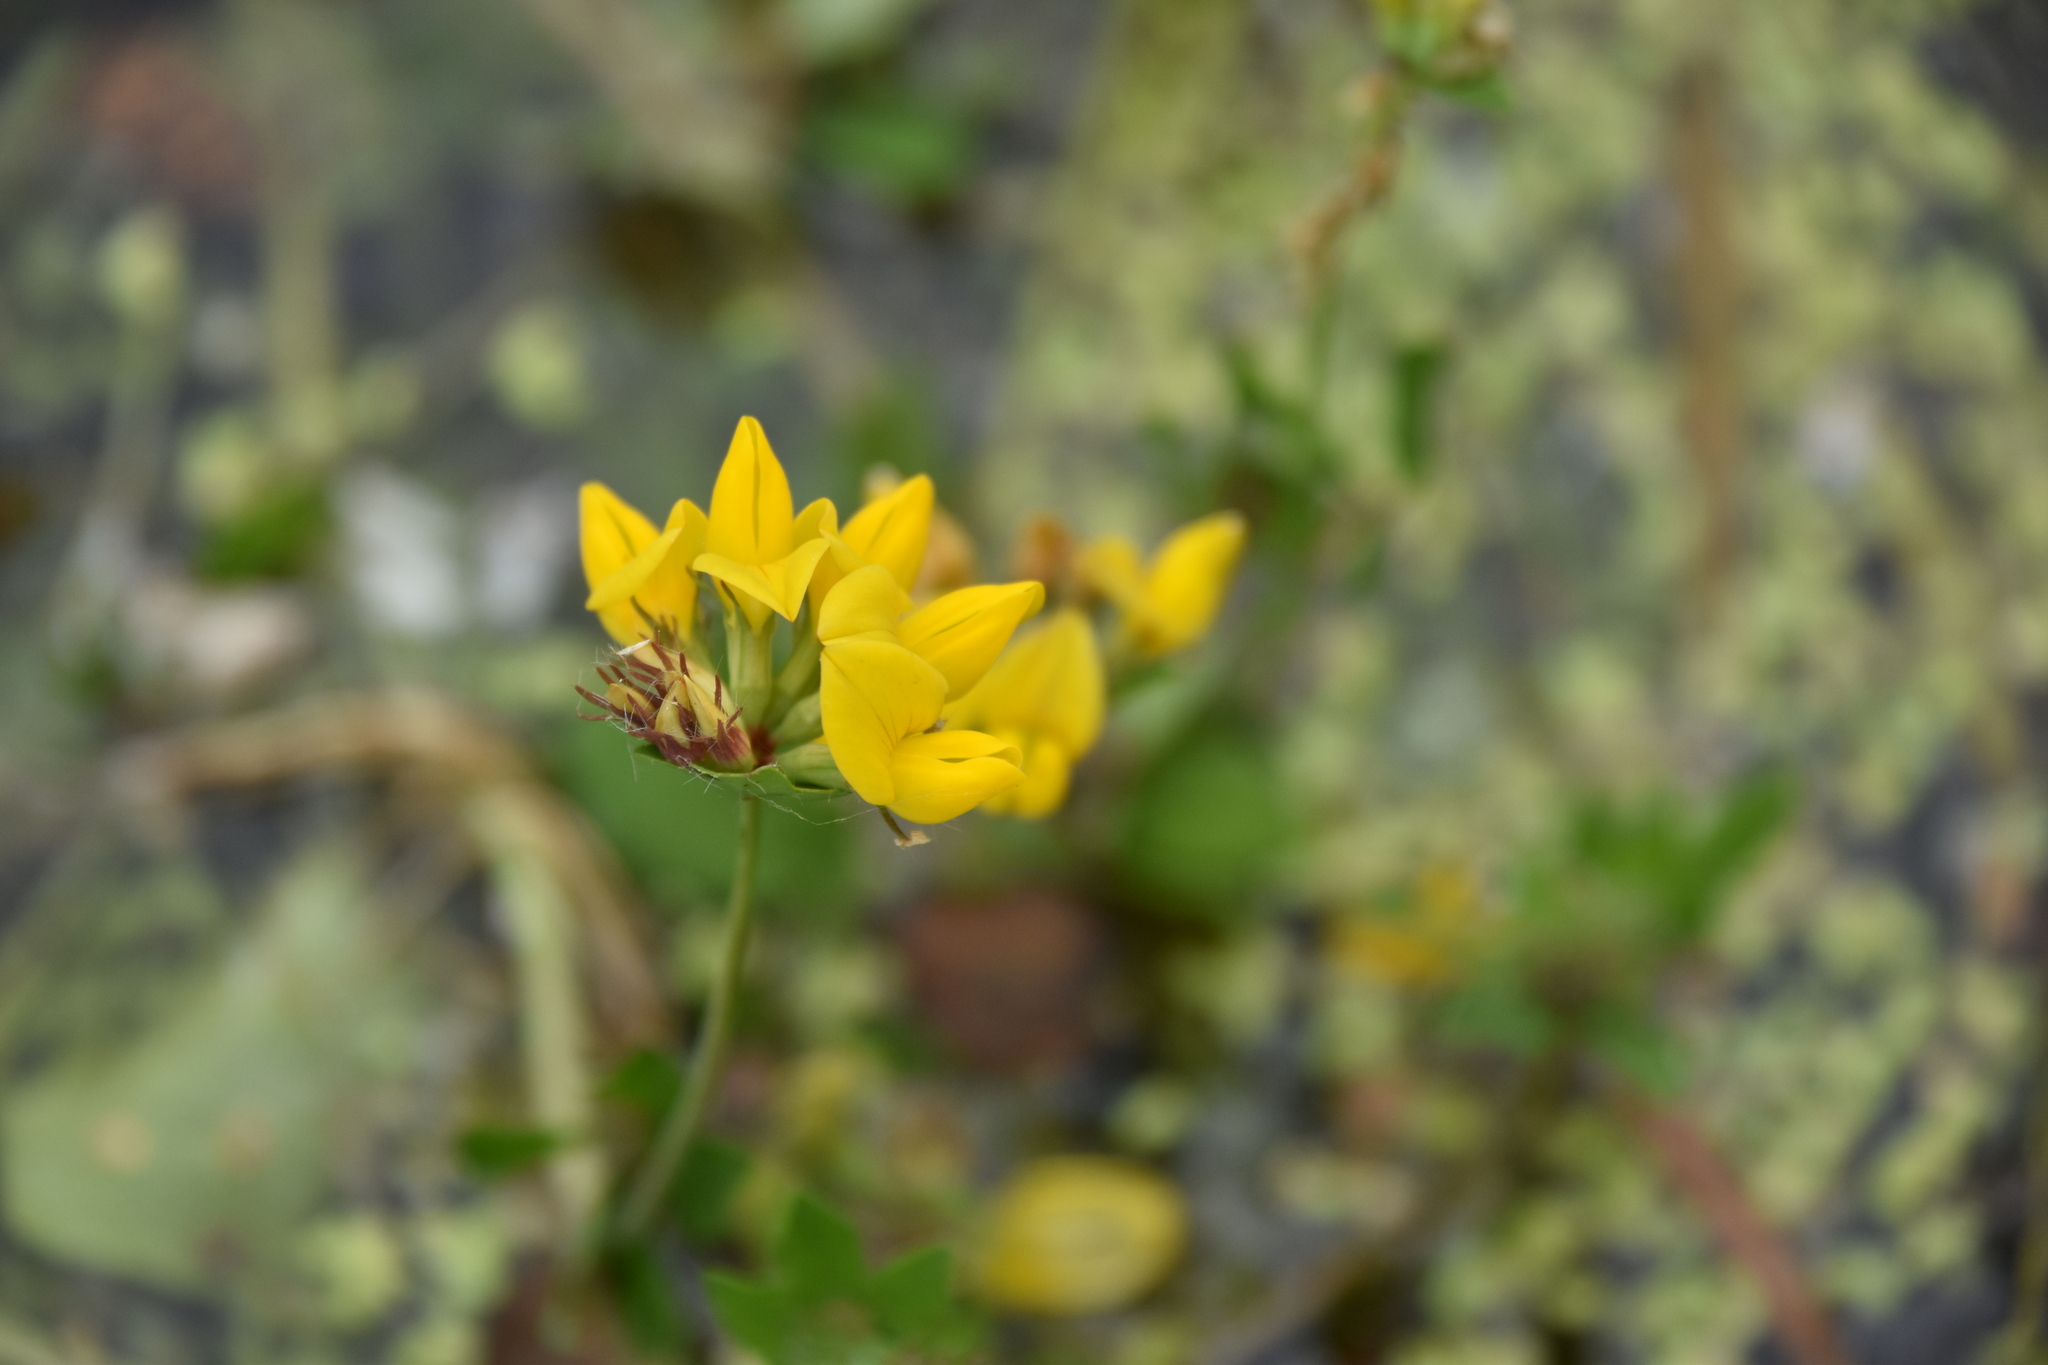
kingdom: Plantae
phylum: Tracheophyta
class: Magnoliopsida
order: Fabales
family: Fabaceae
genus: Lotus
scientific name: Lotus pedunculatus
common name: Greater birdsfoot-trefoil
